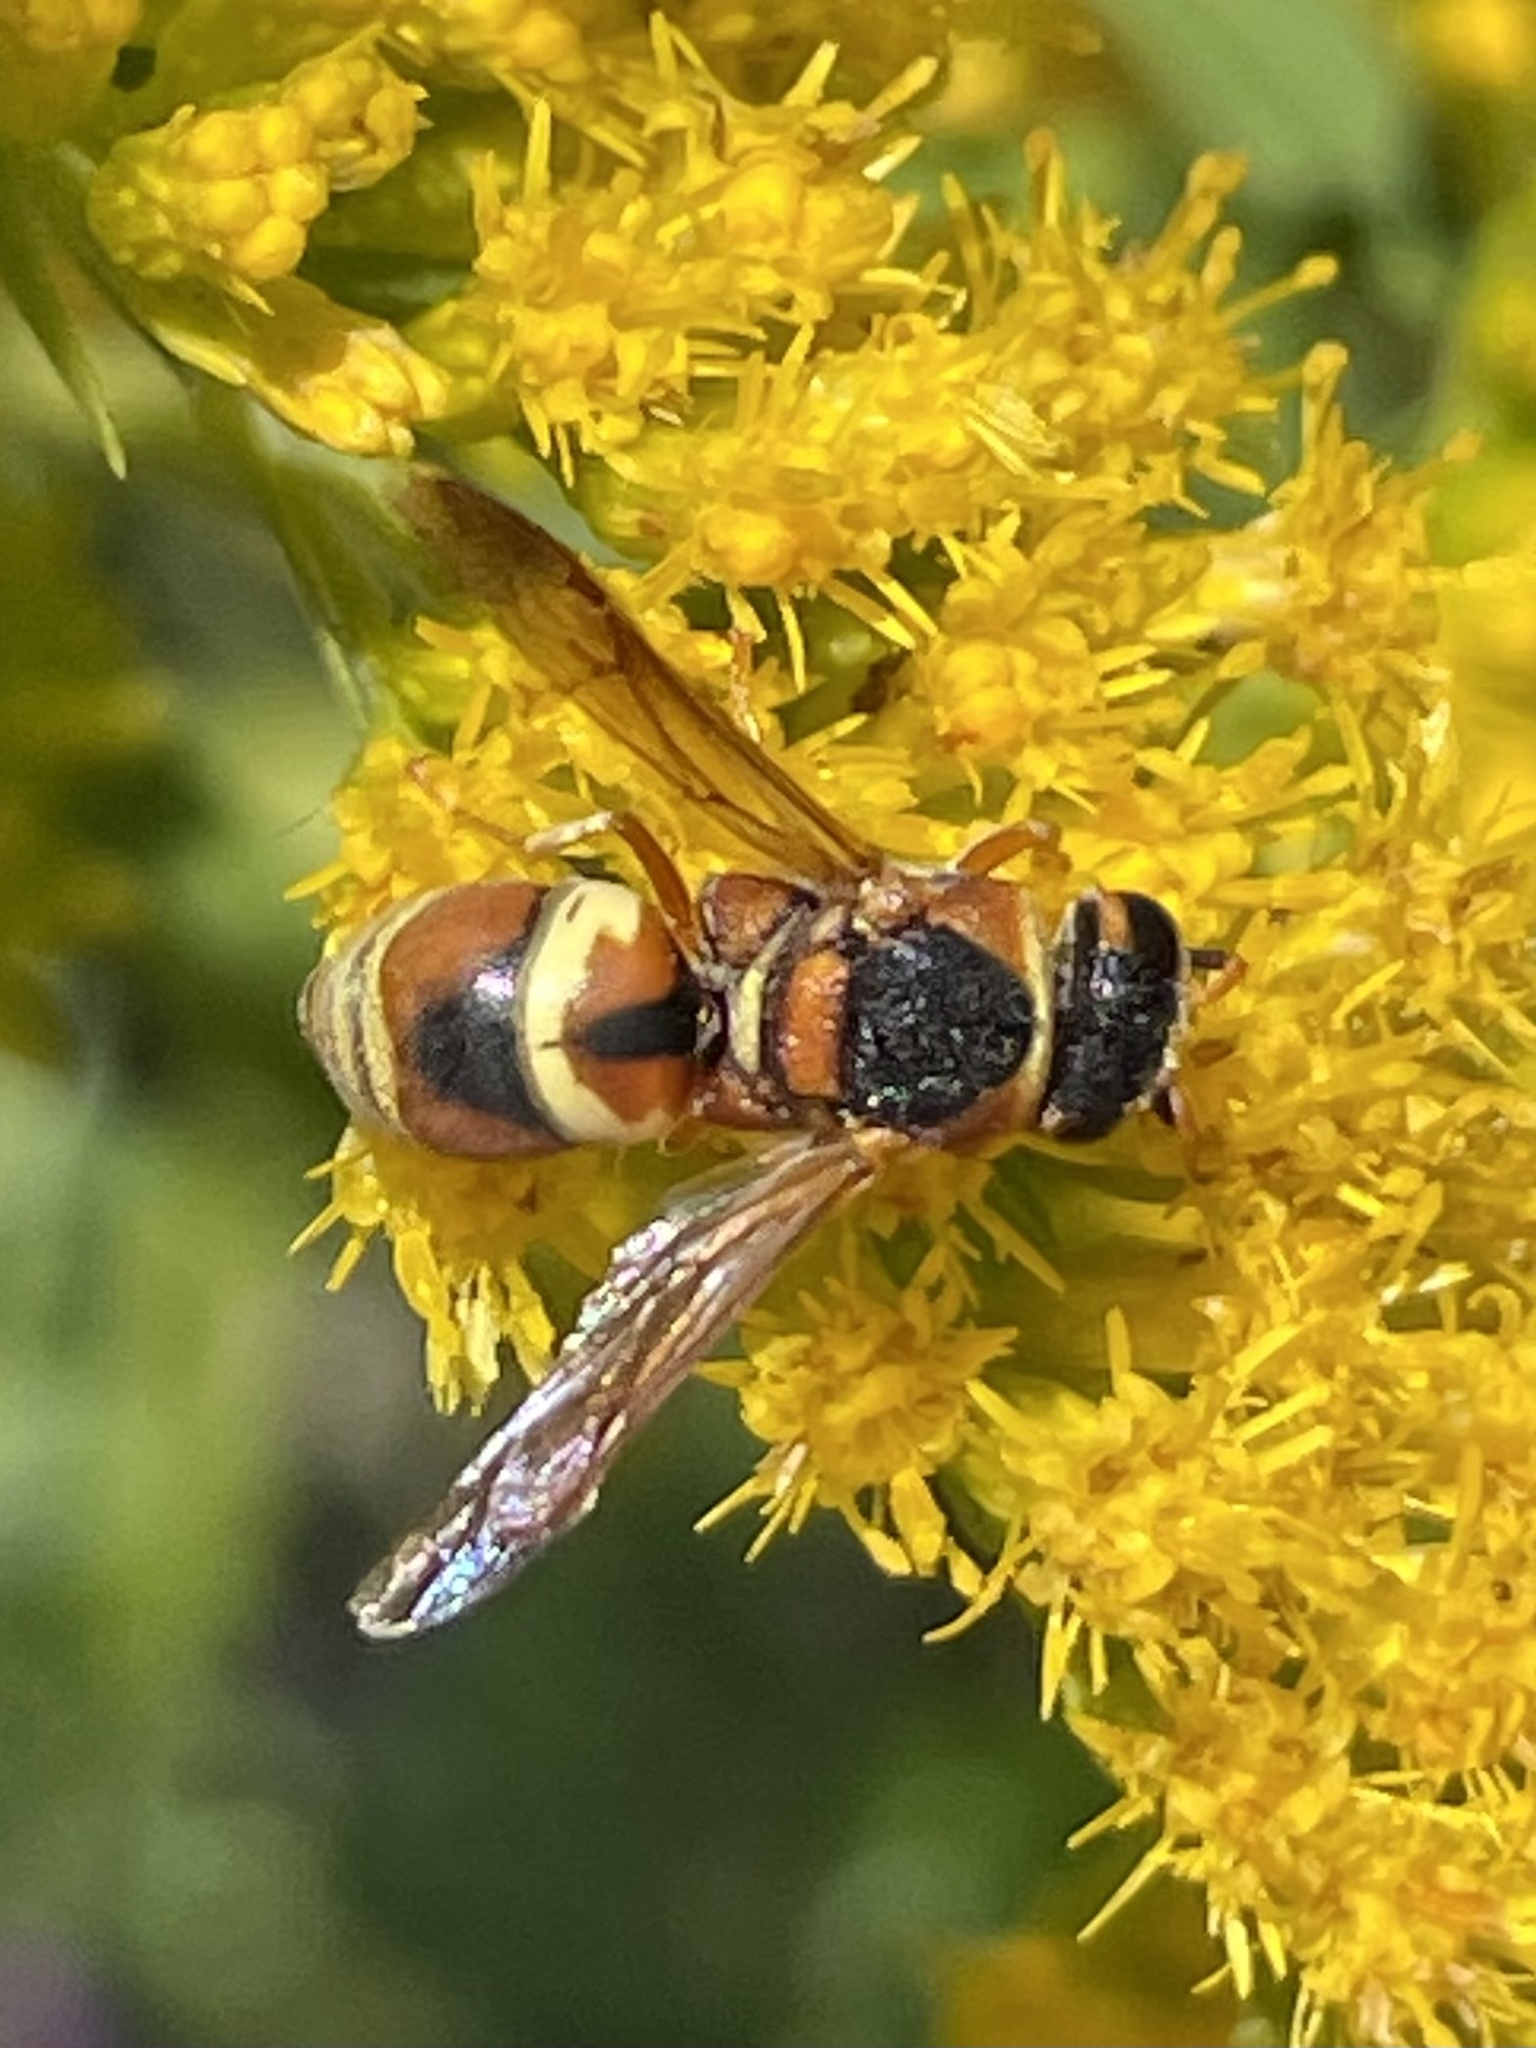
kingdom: Animalia
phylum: Arthropoda
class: Insecta
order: Hymenoptera
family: Eumenidae
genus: Euodynerus
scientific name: Euodynerus hidalgo
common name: Wasp
